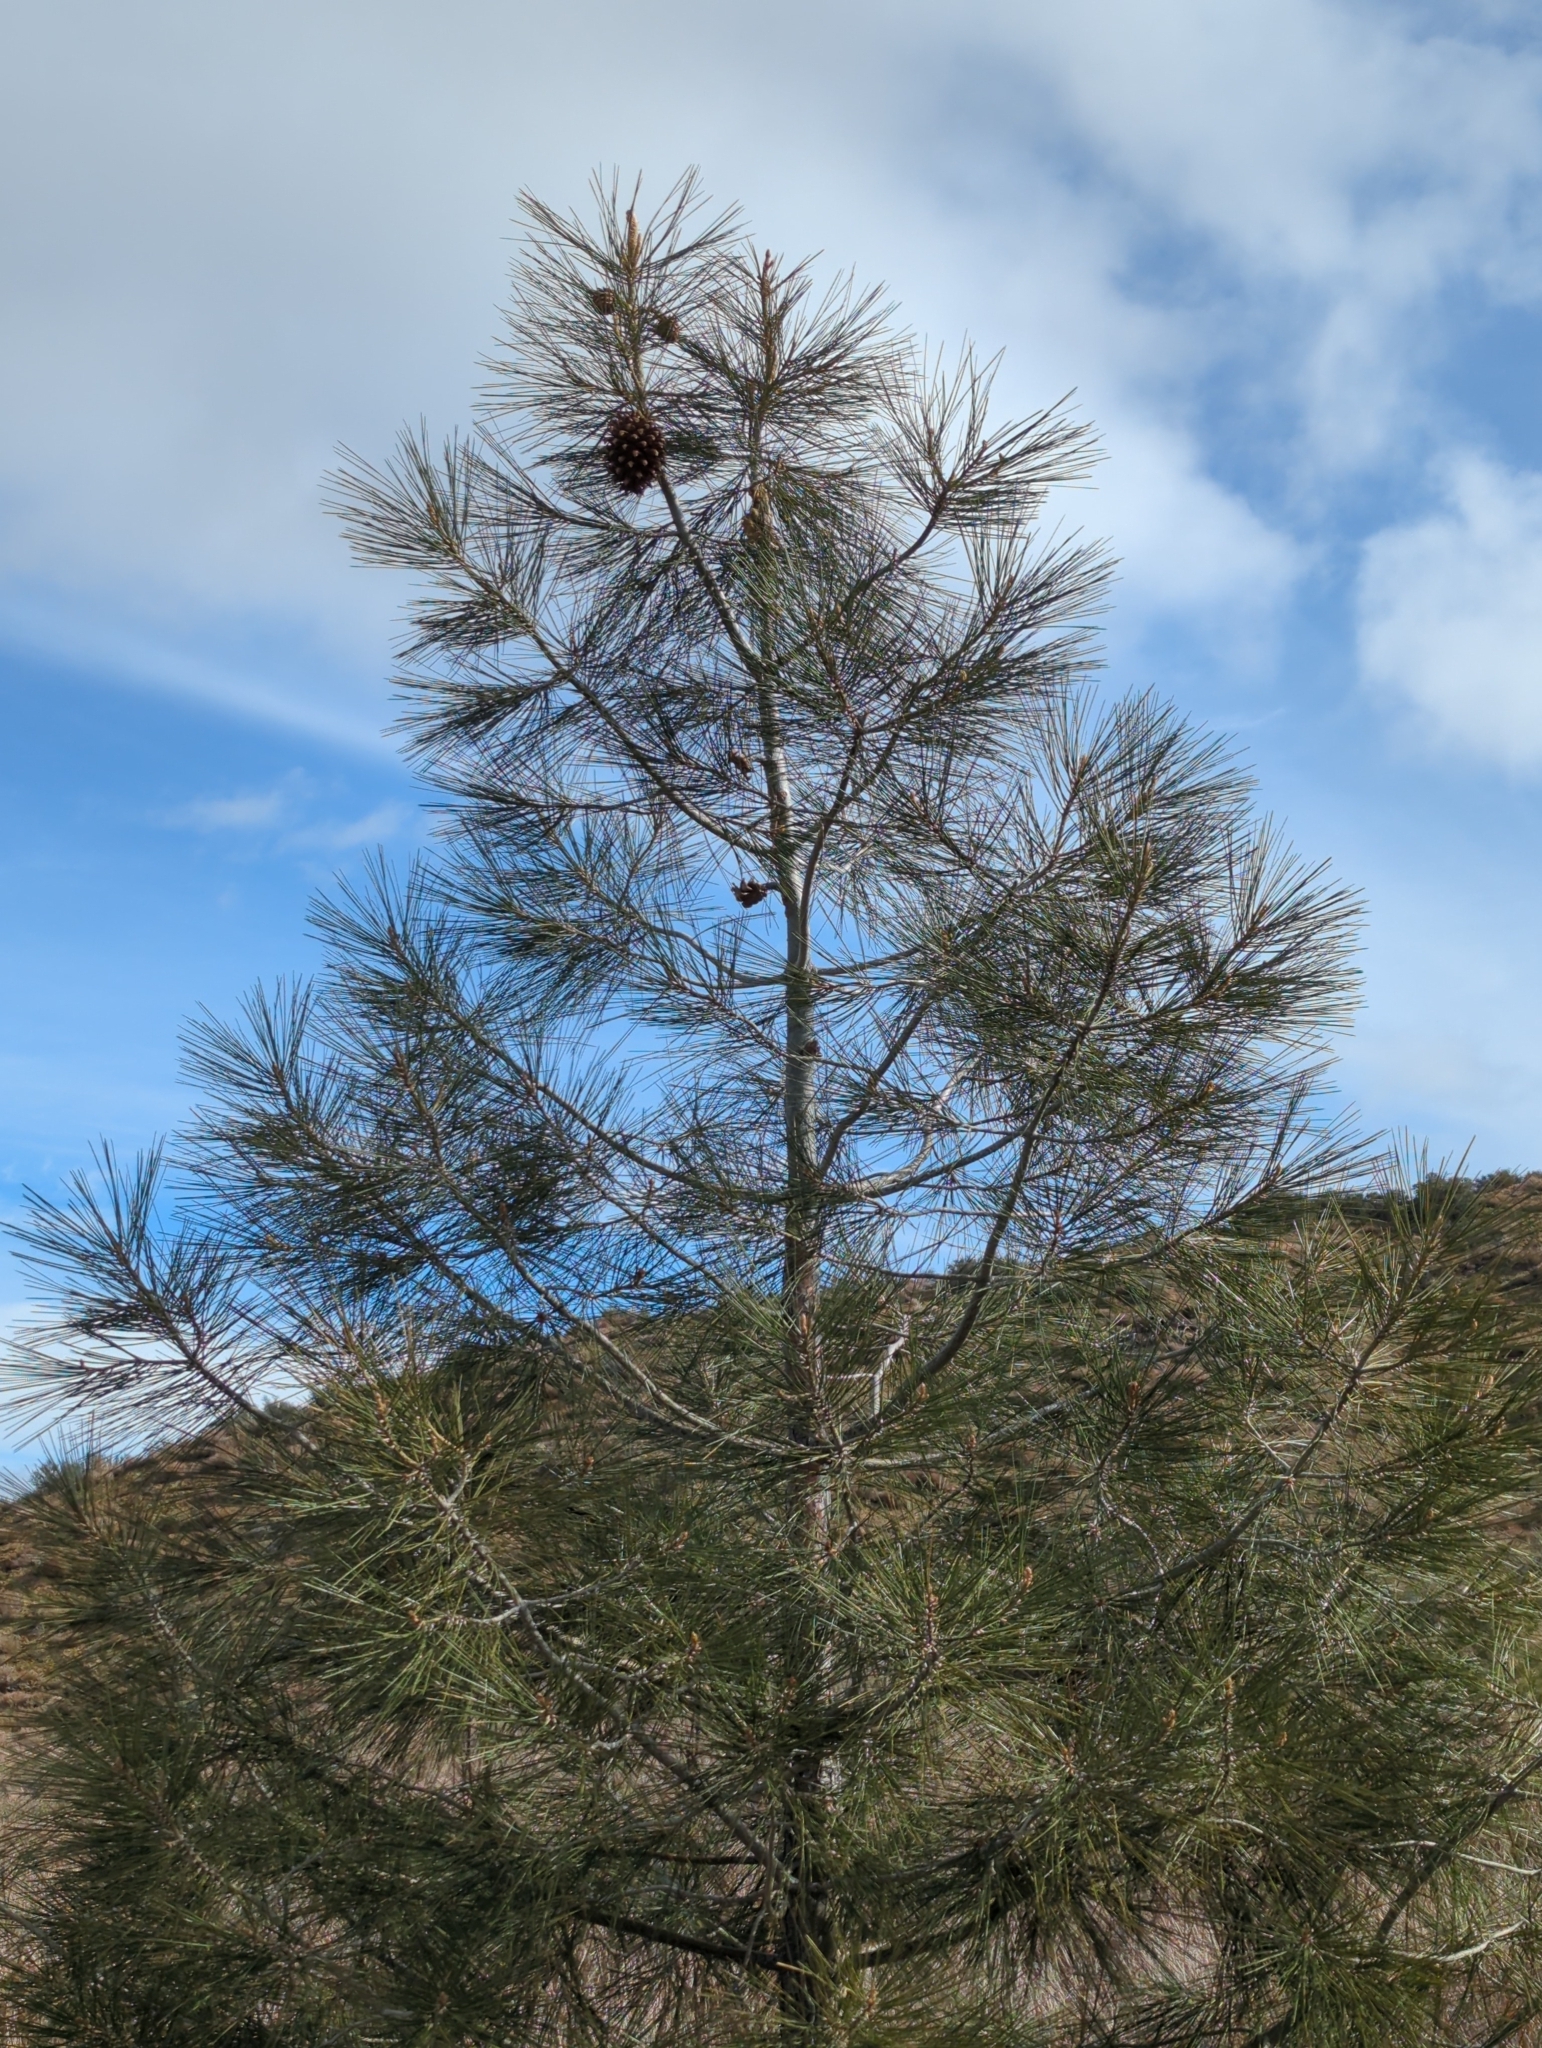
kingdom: Plantae
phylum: Tracheophyta
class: Pinopsida
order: Pinales
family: Pinaceae
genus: Pinus
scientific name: Pinus sabiniana
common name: Bull pine
